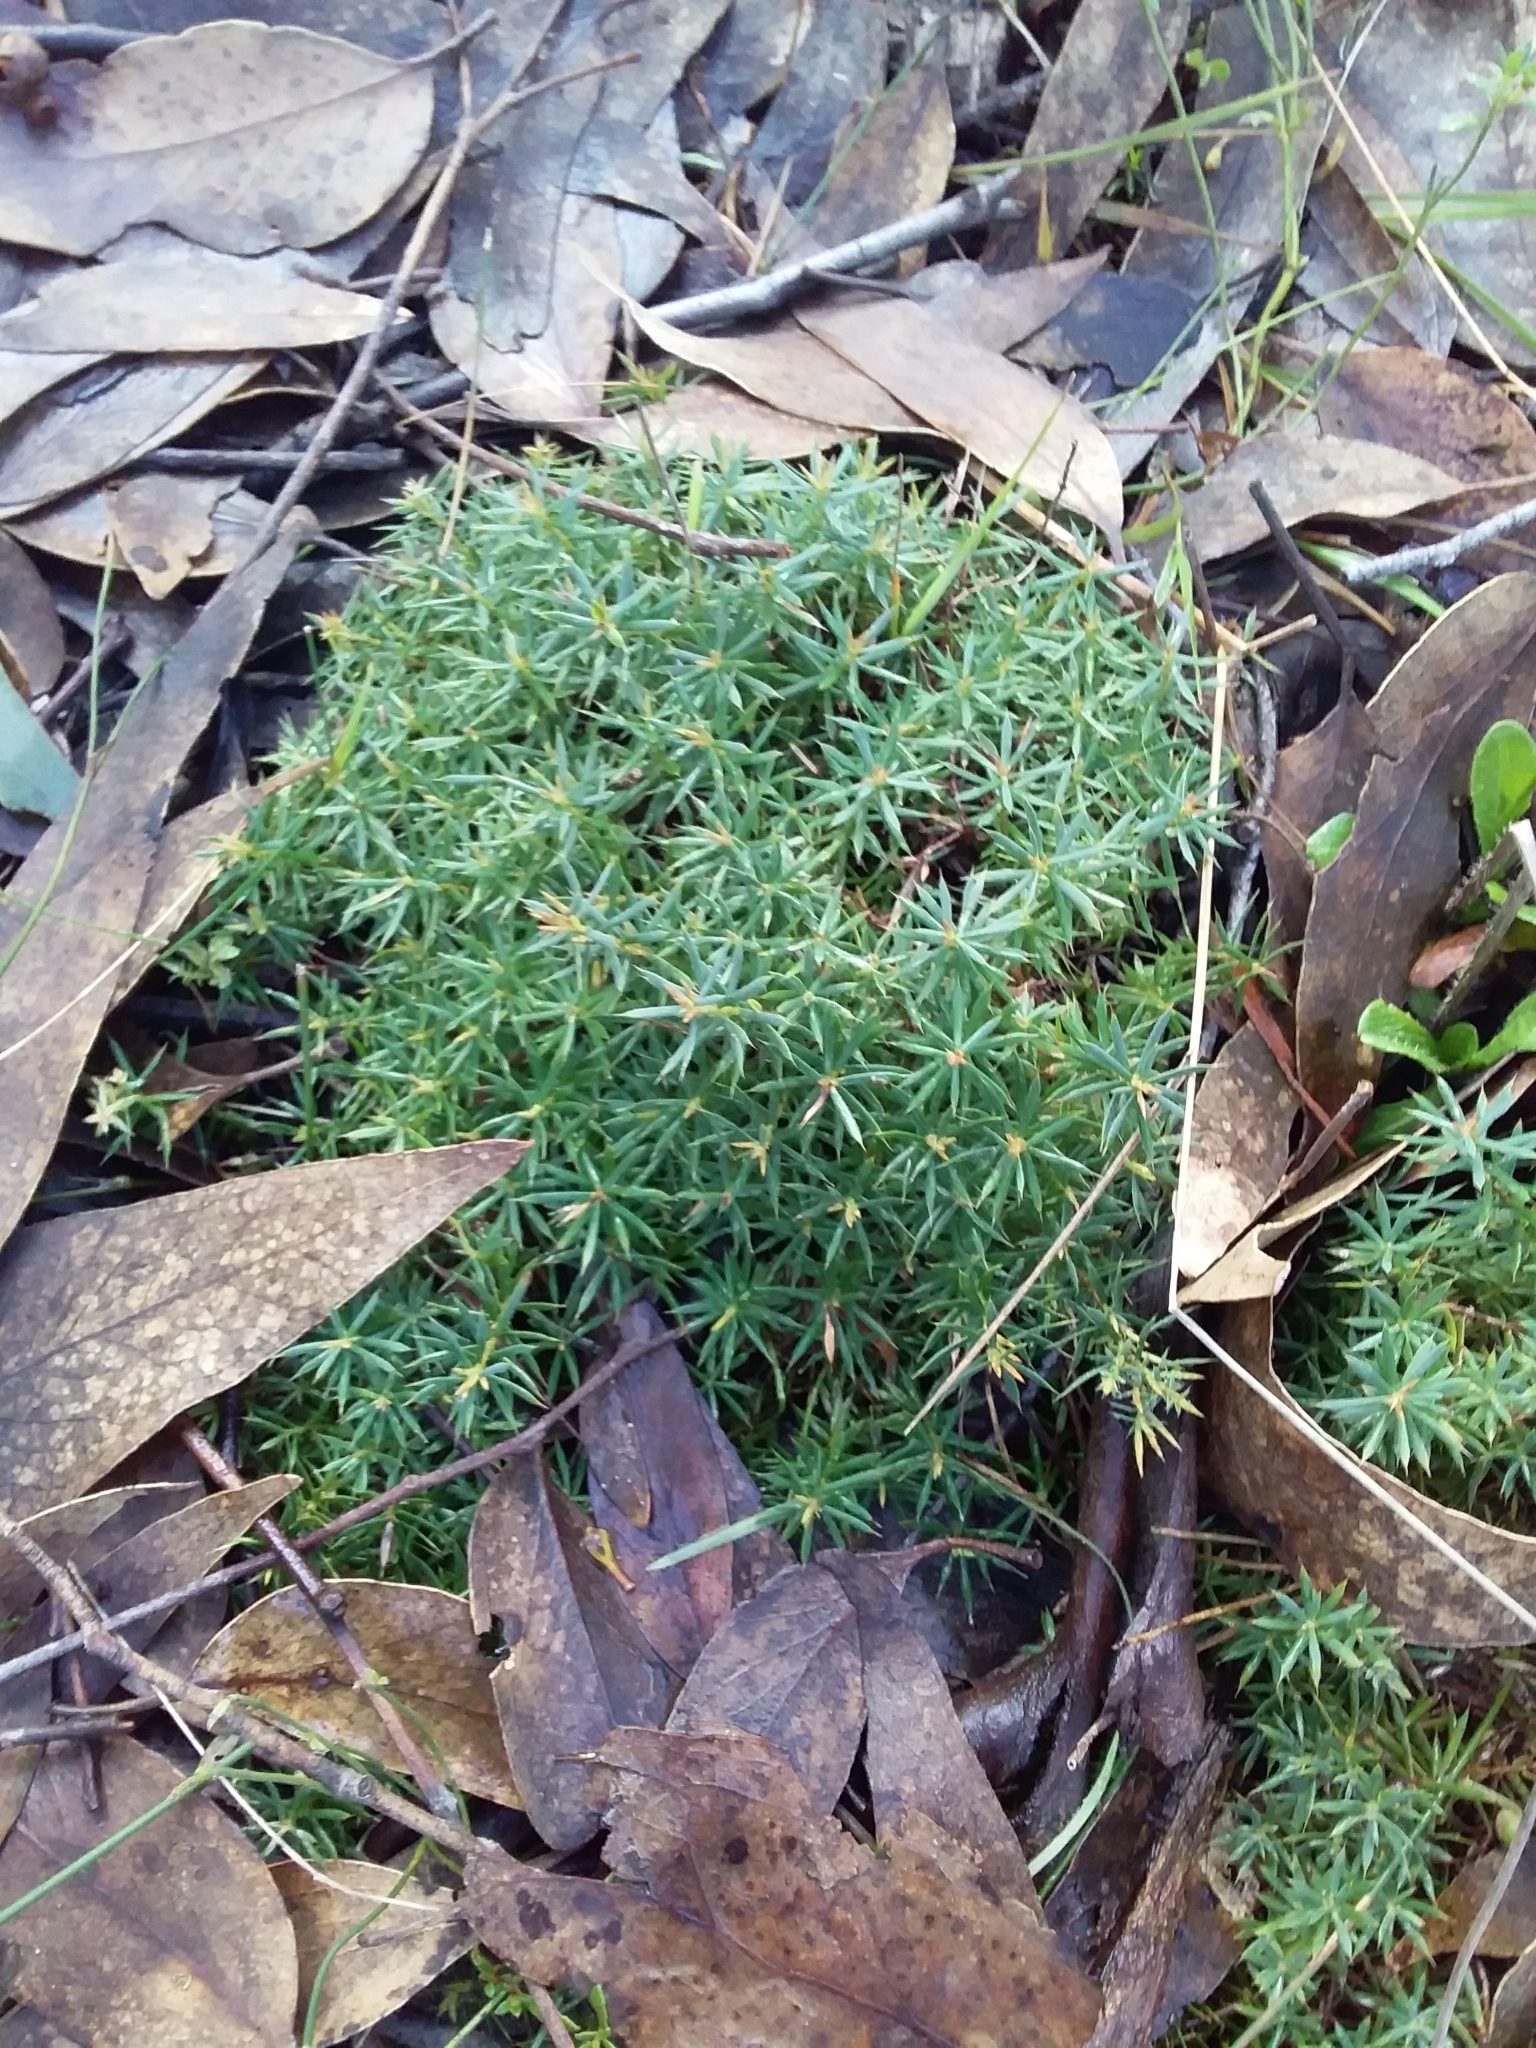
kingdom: Plantae
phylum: Tracheophyta
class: Magnoliopsida
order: Ericales
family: Ericaceae
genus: Styphelia
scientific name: Styphelia humifusa
